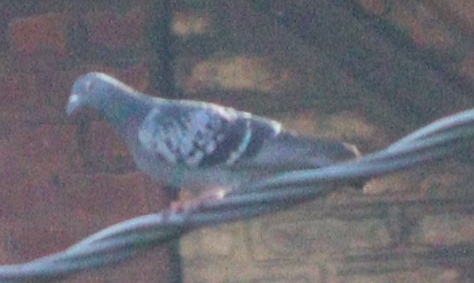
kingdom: Animalia
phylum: Chordata
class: Aves
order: Columbiformes
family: Columbidae
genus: Columba
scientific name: Columba livia
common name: Rock pigeon
